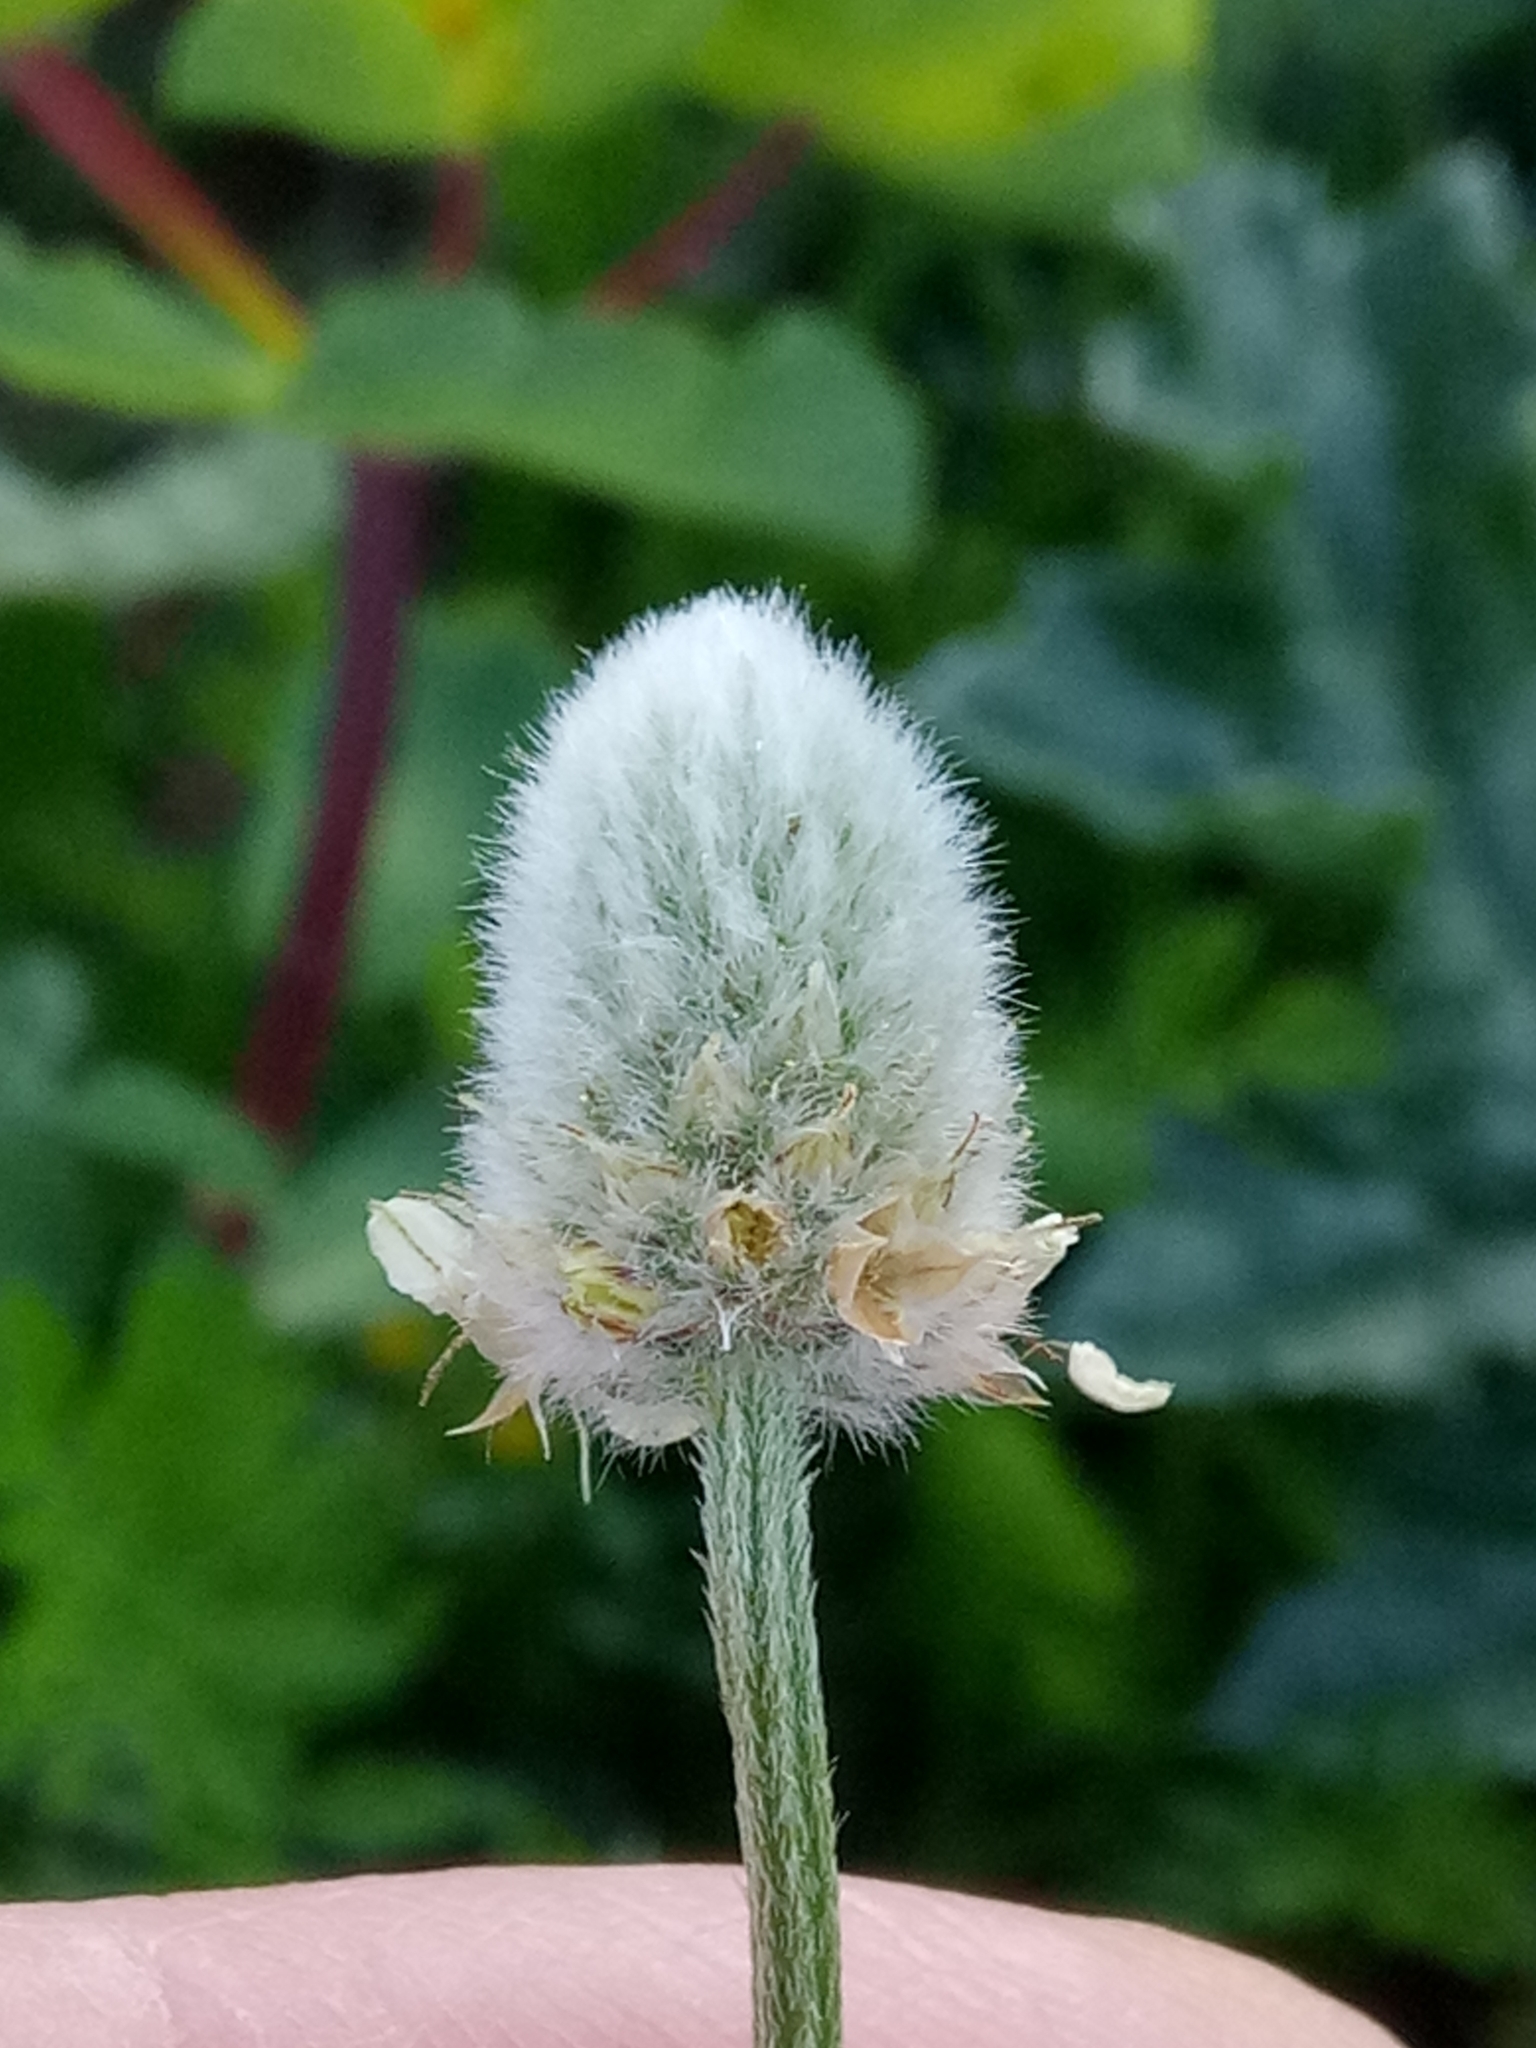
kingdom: Plantae
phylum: Tracheophyta
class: Magnoliopsida
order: Lamiales
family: Plantaginaceae
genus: Plantago
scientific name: Plantago lagopus
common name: Hare-foot plantain
